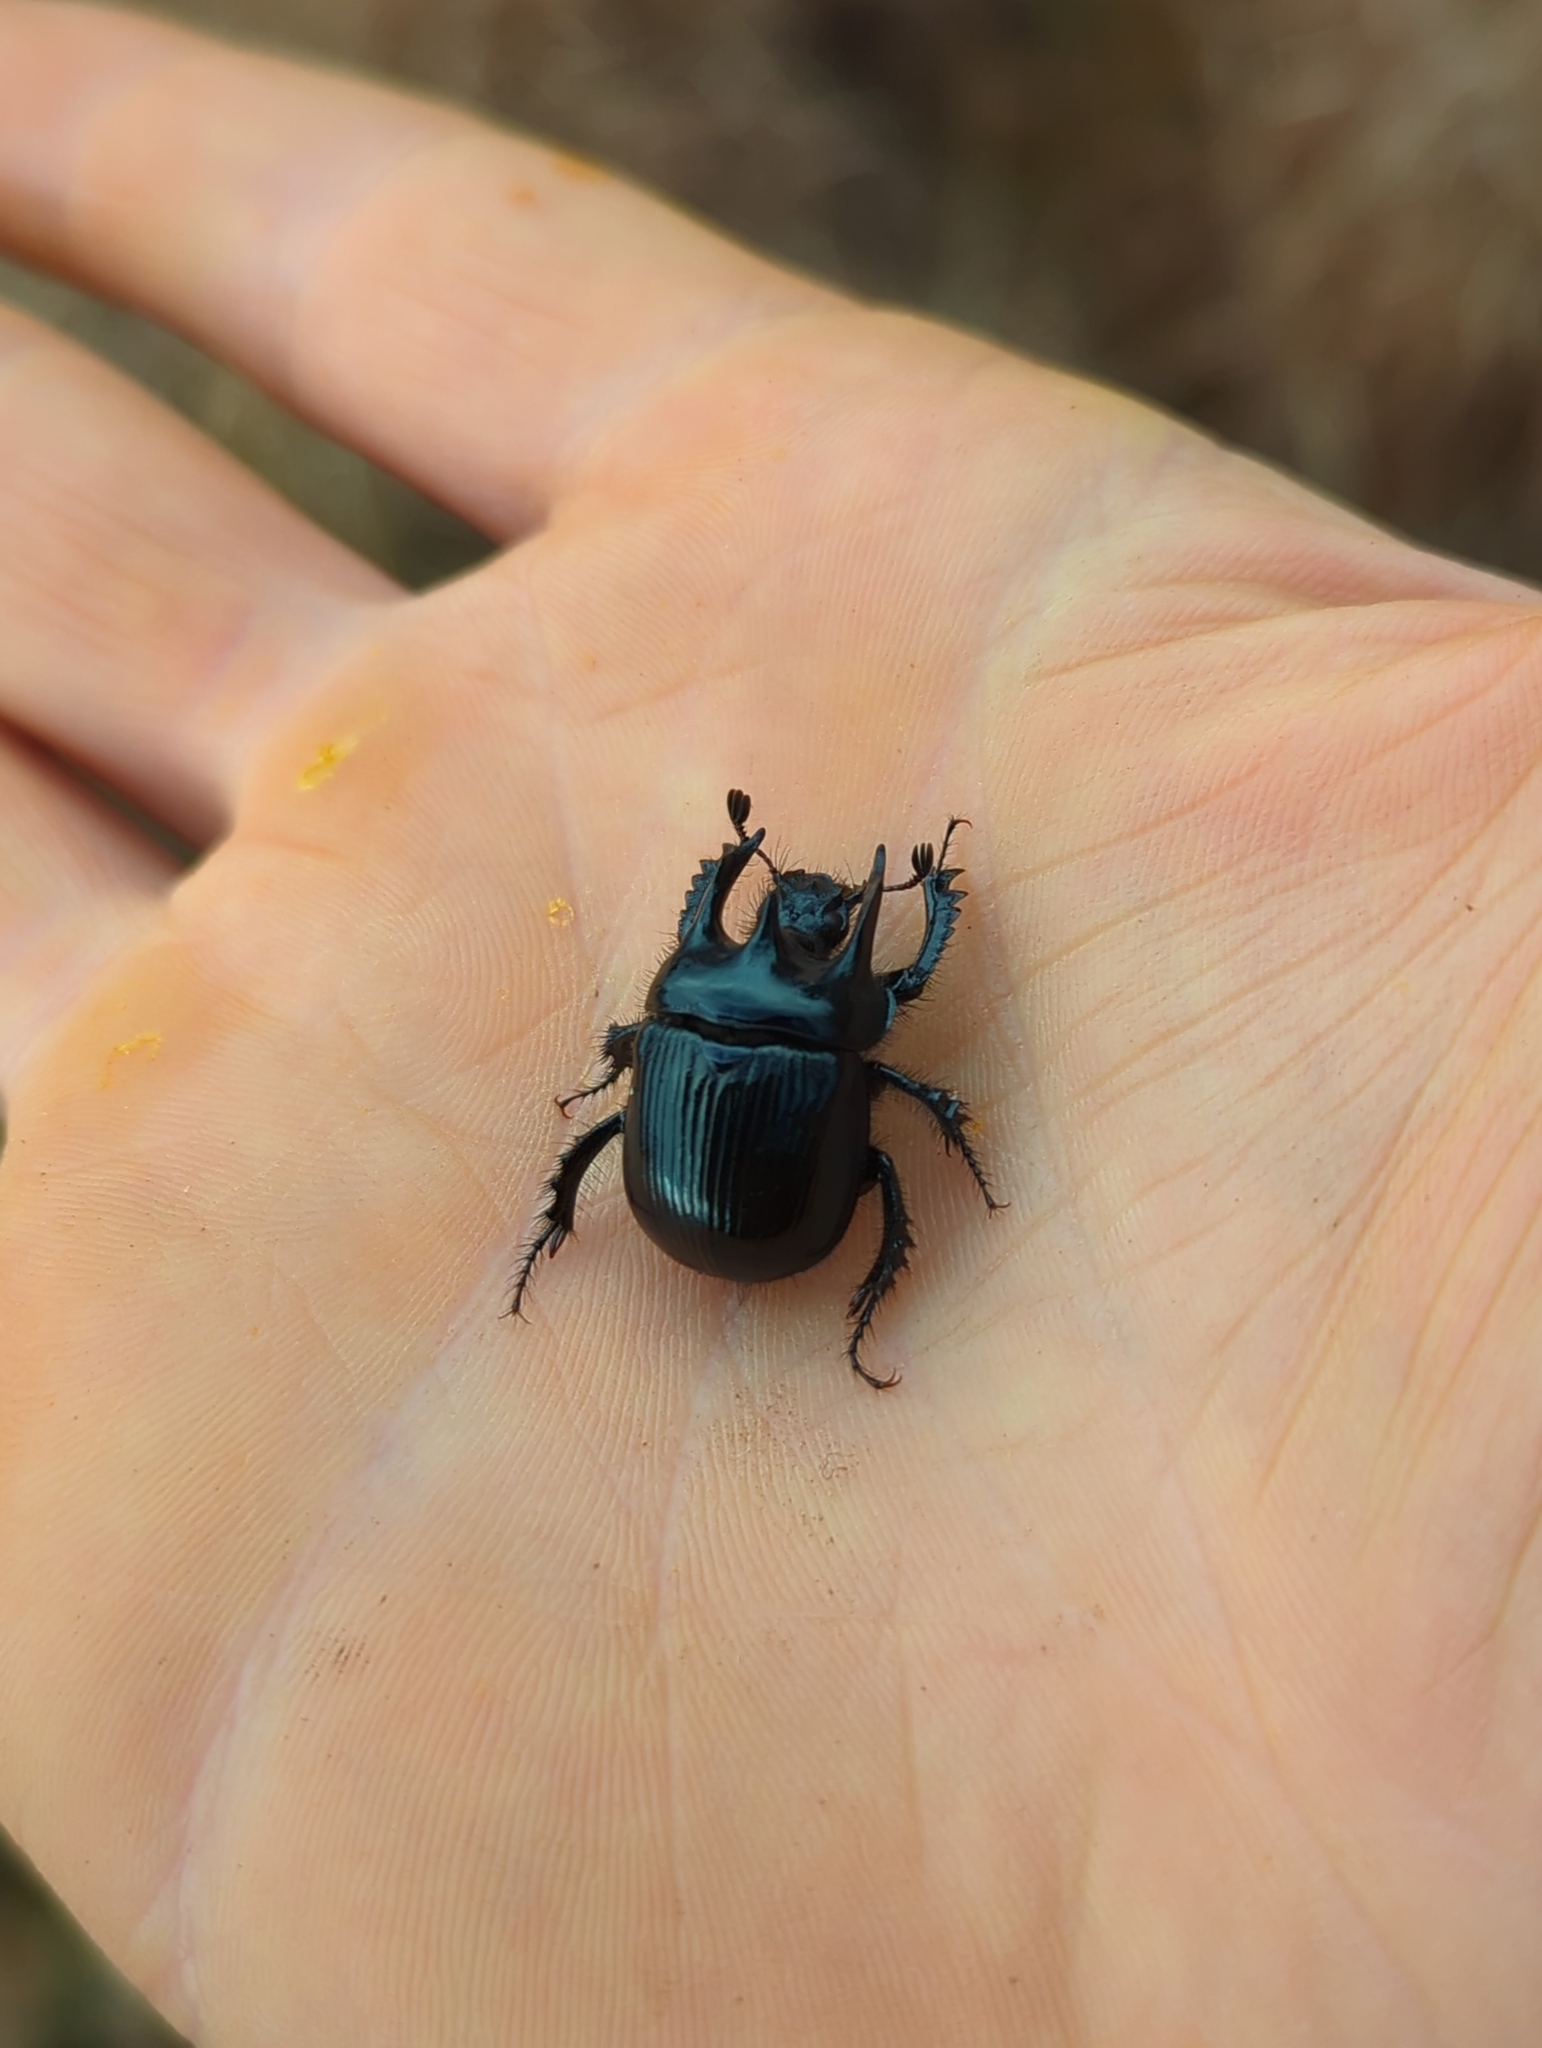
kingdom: Animalia
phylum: Arthropoda
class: Insecta
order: Coleoptera
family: Geotrupidae
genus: Typhaeus
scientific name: Typhaeus typhoeus
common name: Minotaur beetle
